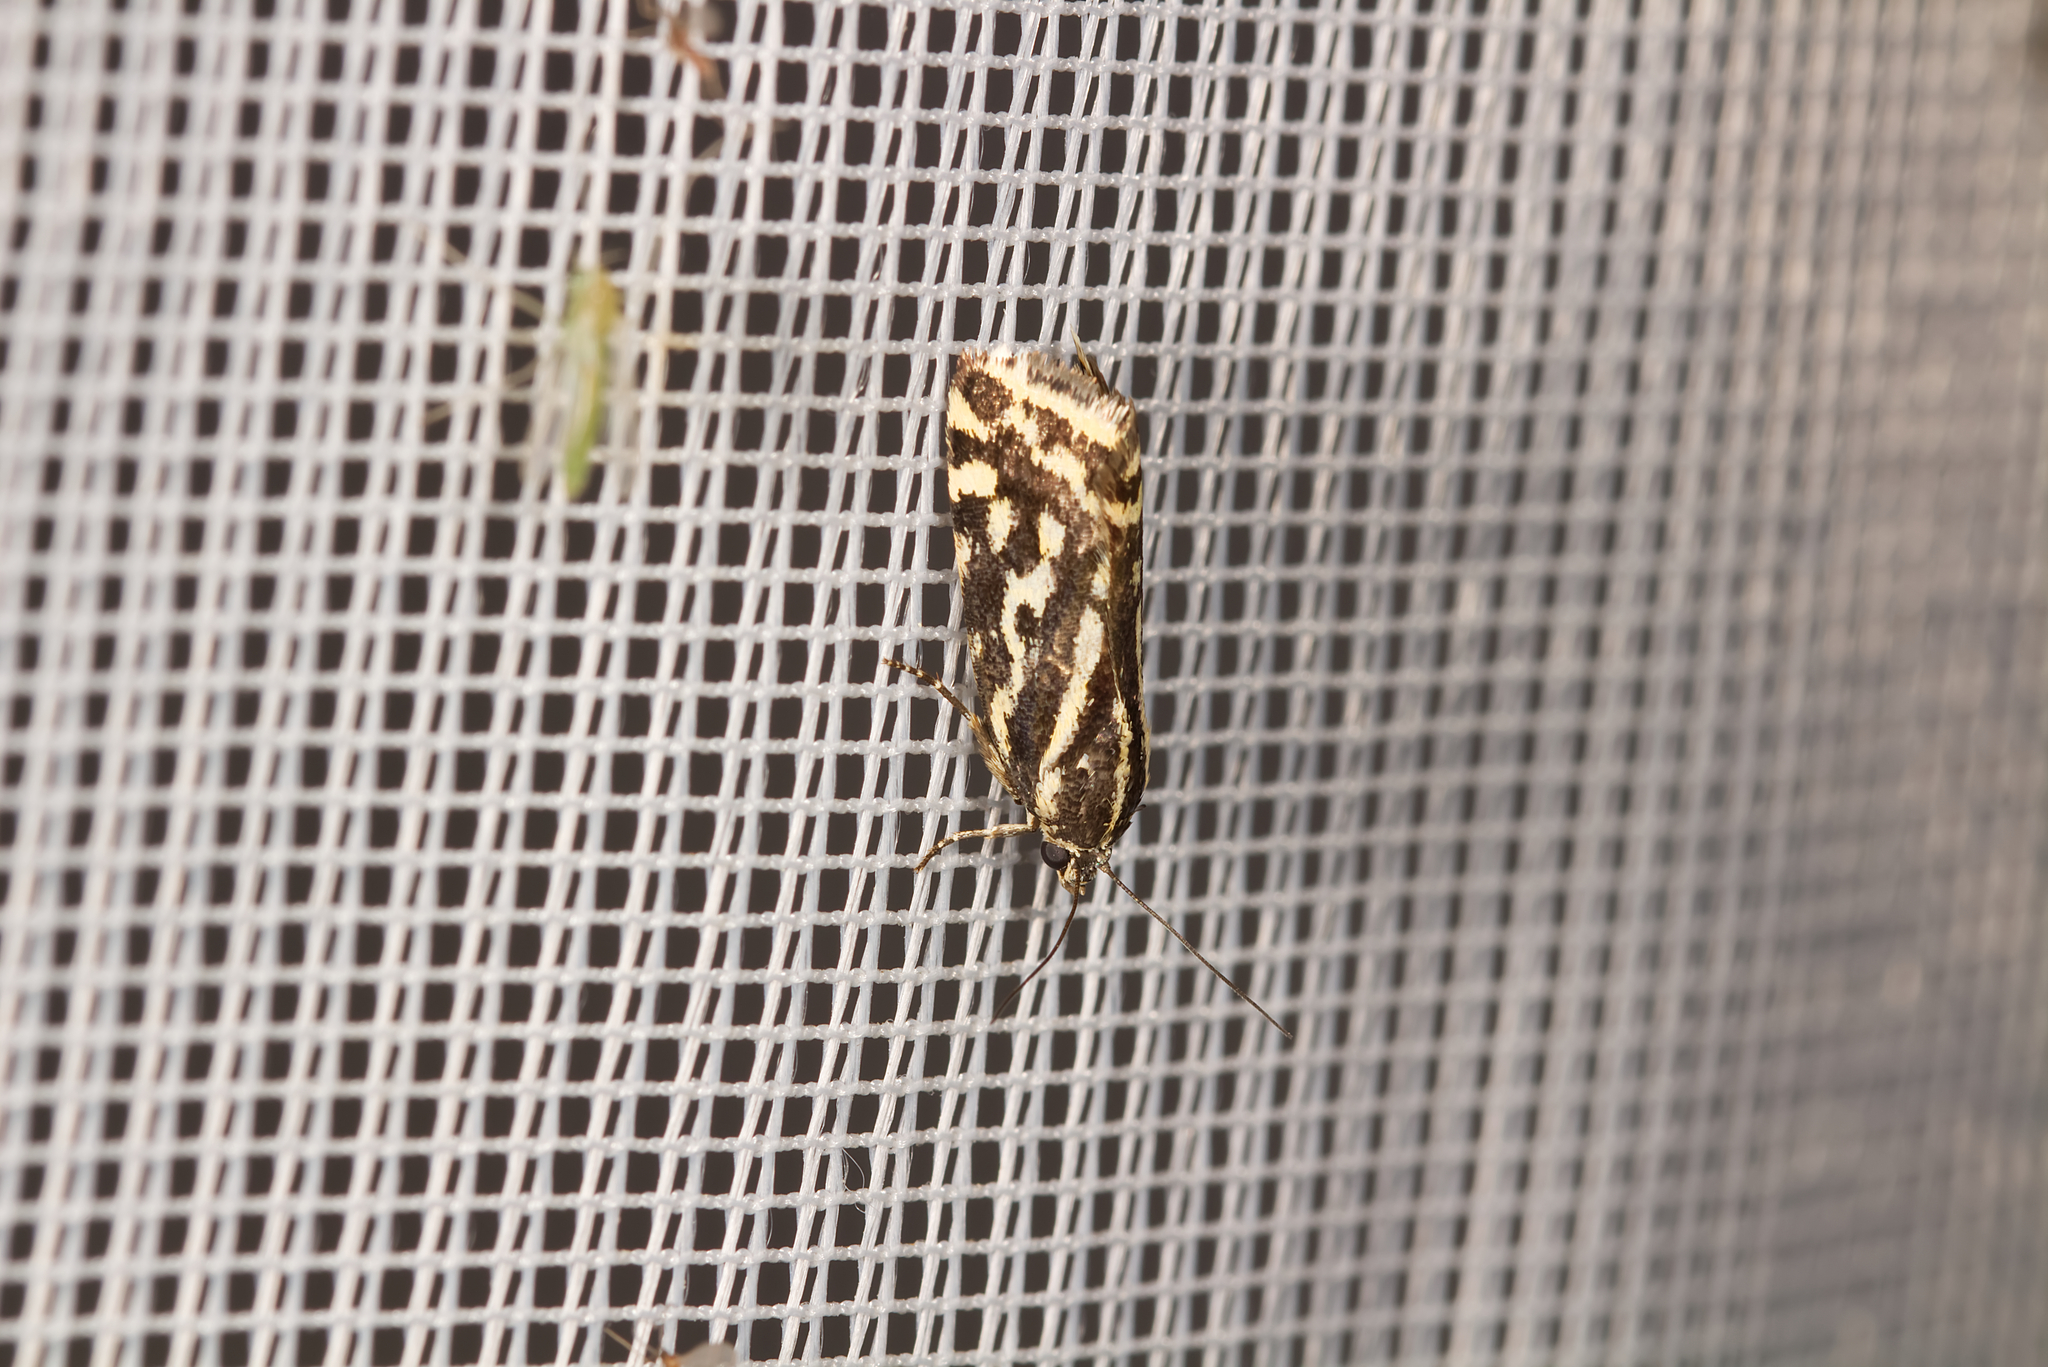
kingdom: Animalia
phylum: Arthropoda
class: Insecta
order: Lepidoptera
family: Noctuidae
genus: Acontia
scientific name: Acontia trabealis
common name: Spotted sulphur
